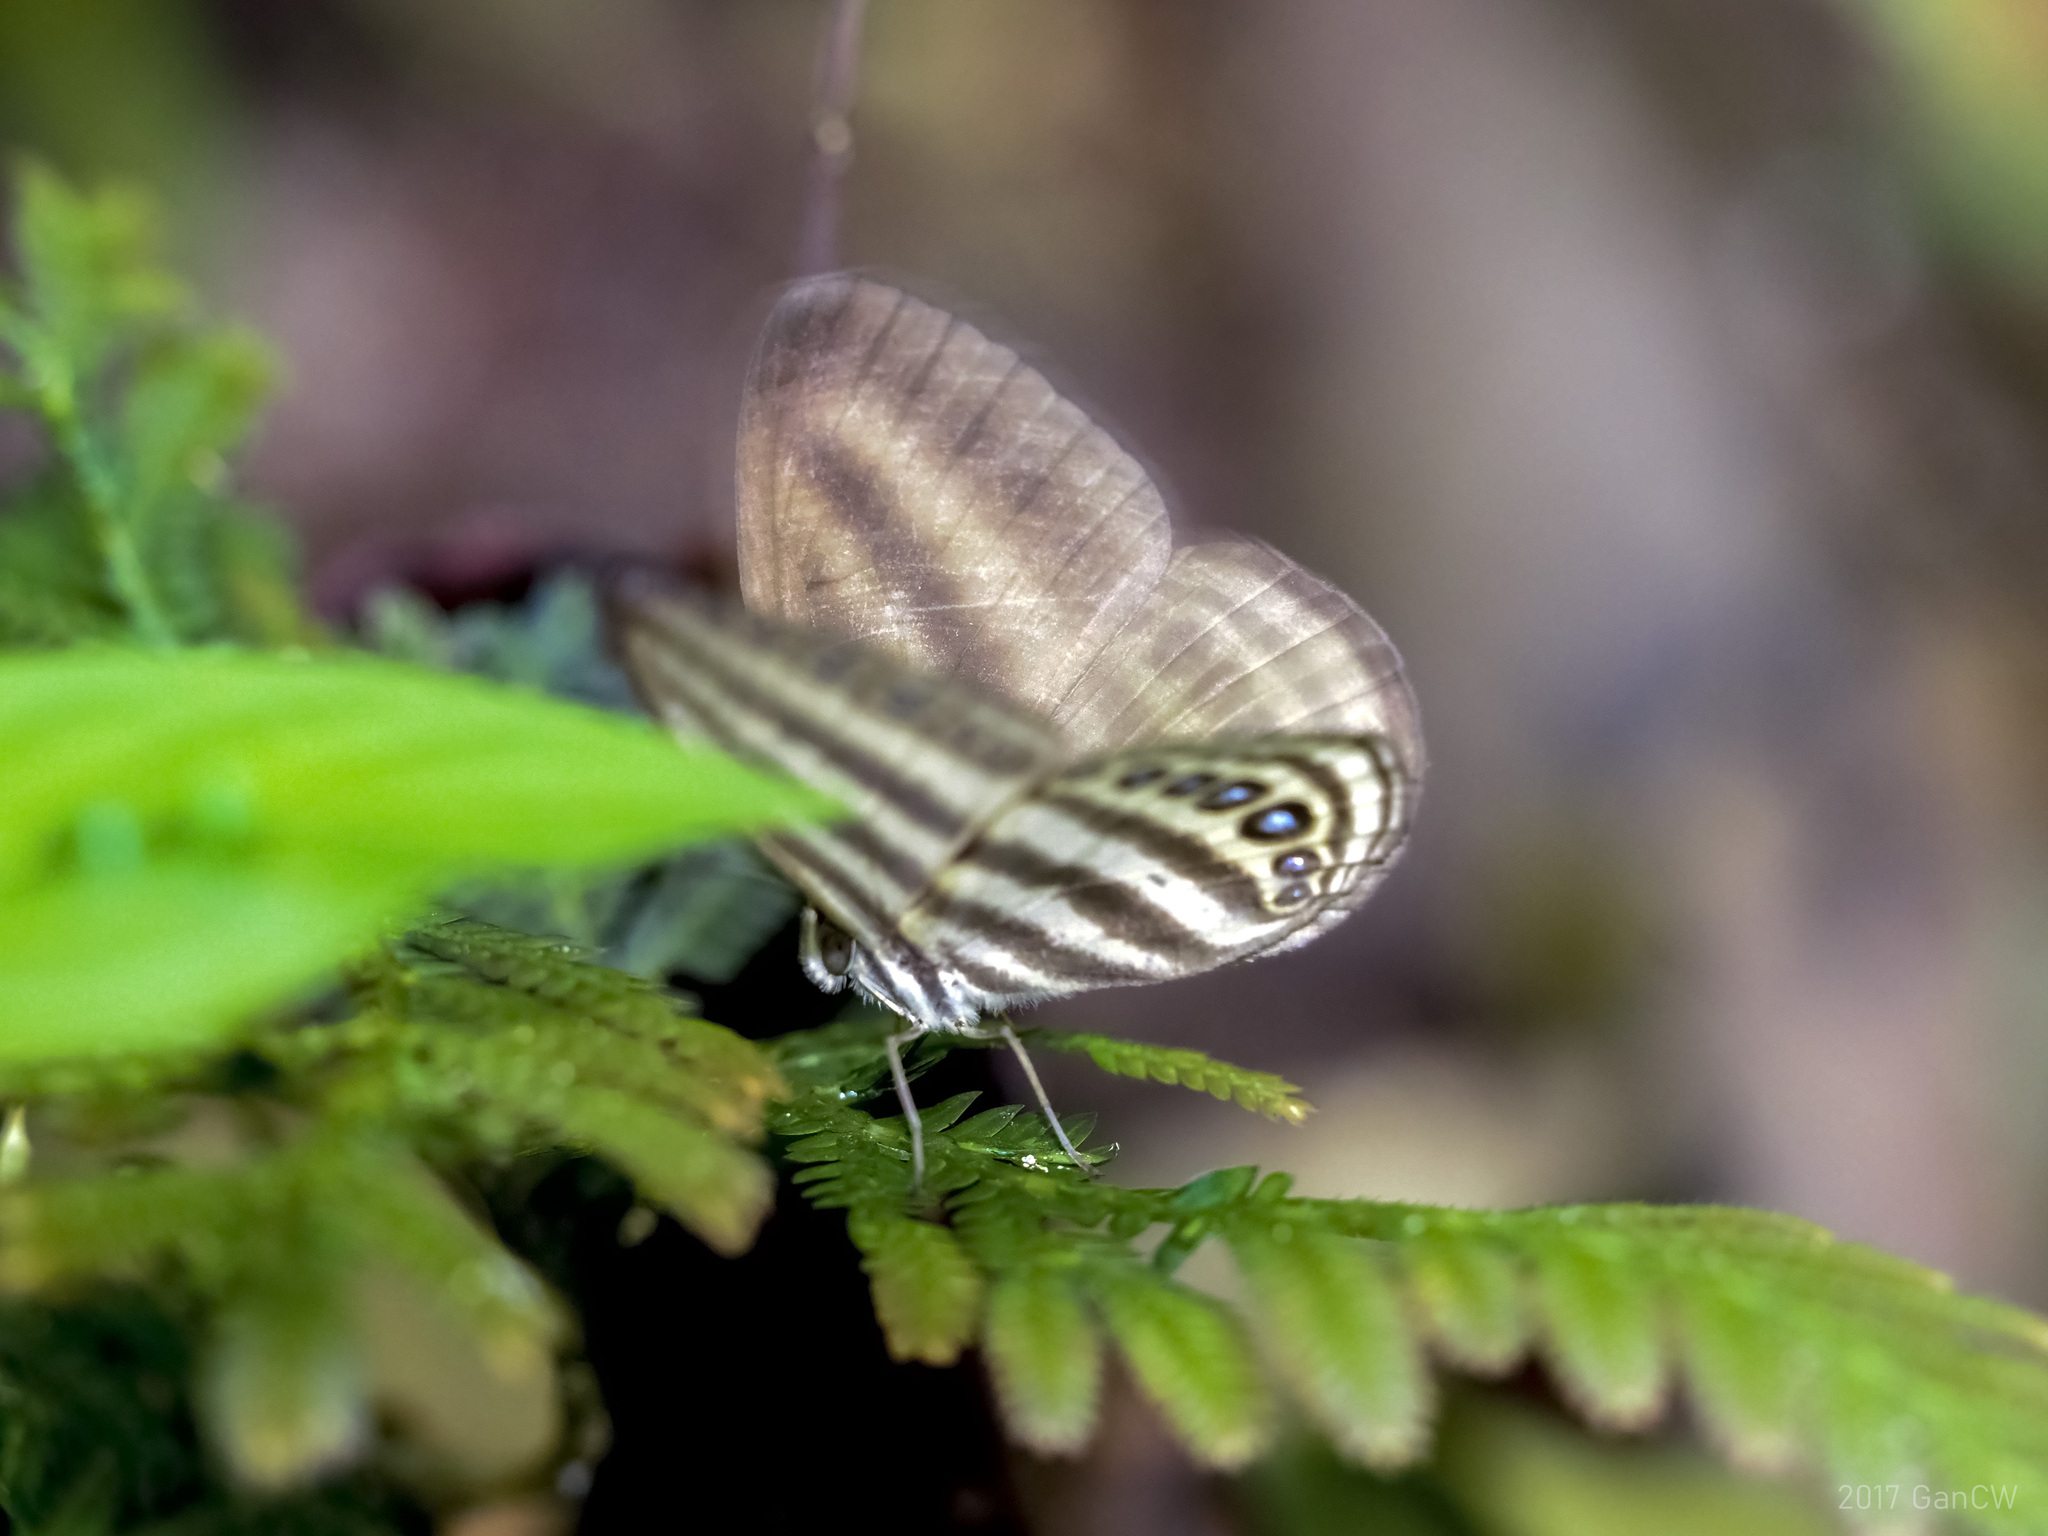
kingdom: Animalia
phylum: Arthropoda
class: Insecta
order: Lepidoptera
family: Nymphalidae
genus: Ragadia
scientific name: Ragadia makuta
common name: Striped ringlet
